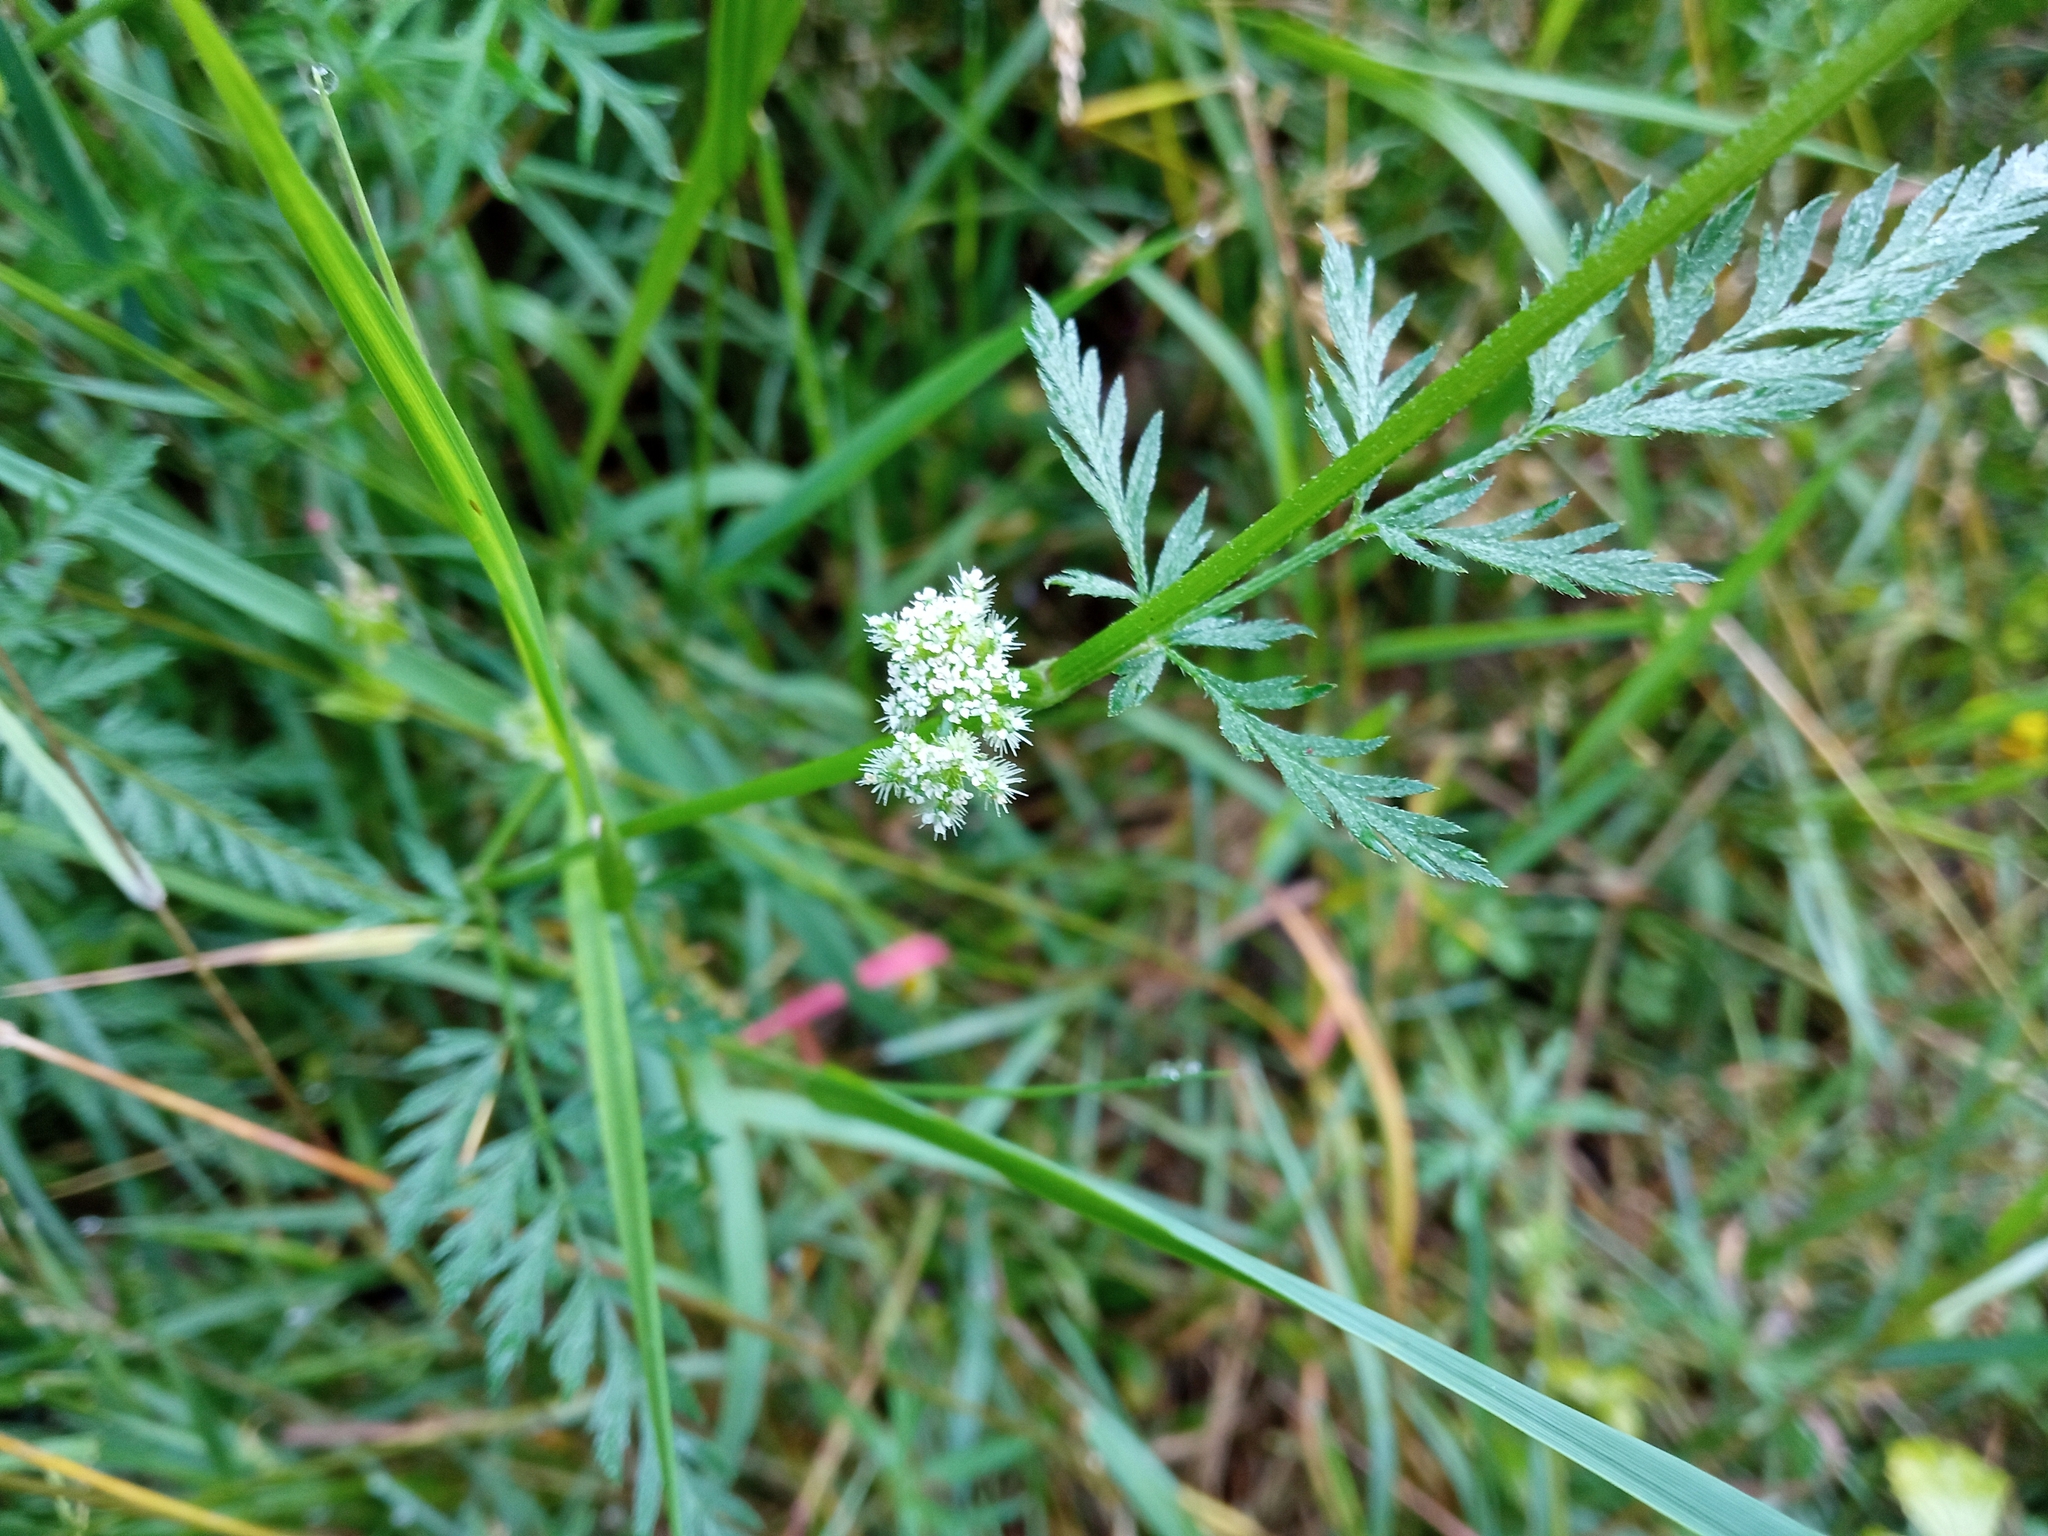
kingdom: Plantae
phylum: Tracheophyta
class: Magnoliopsida
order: Apiales
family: Apiaceae
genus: Torilis
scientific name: Torilis nodosa
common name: Knotted hedge-parsley
